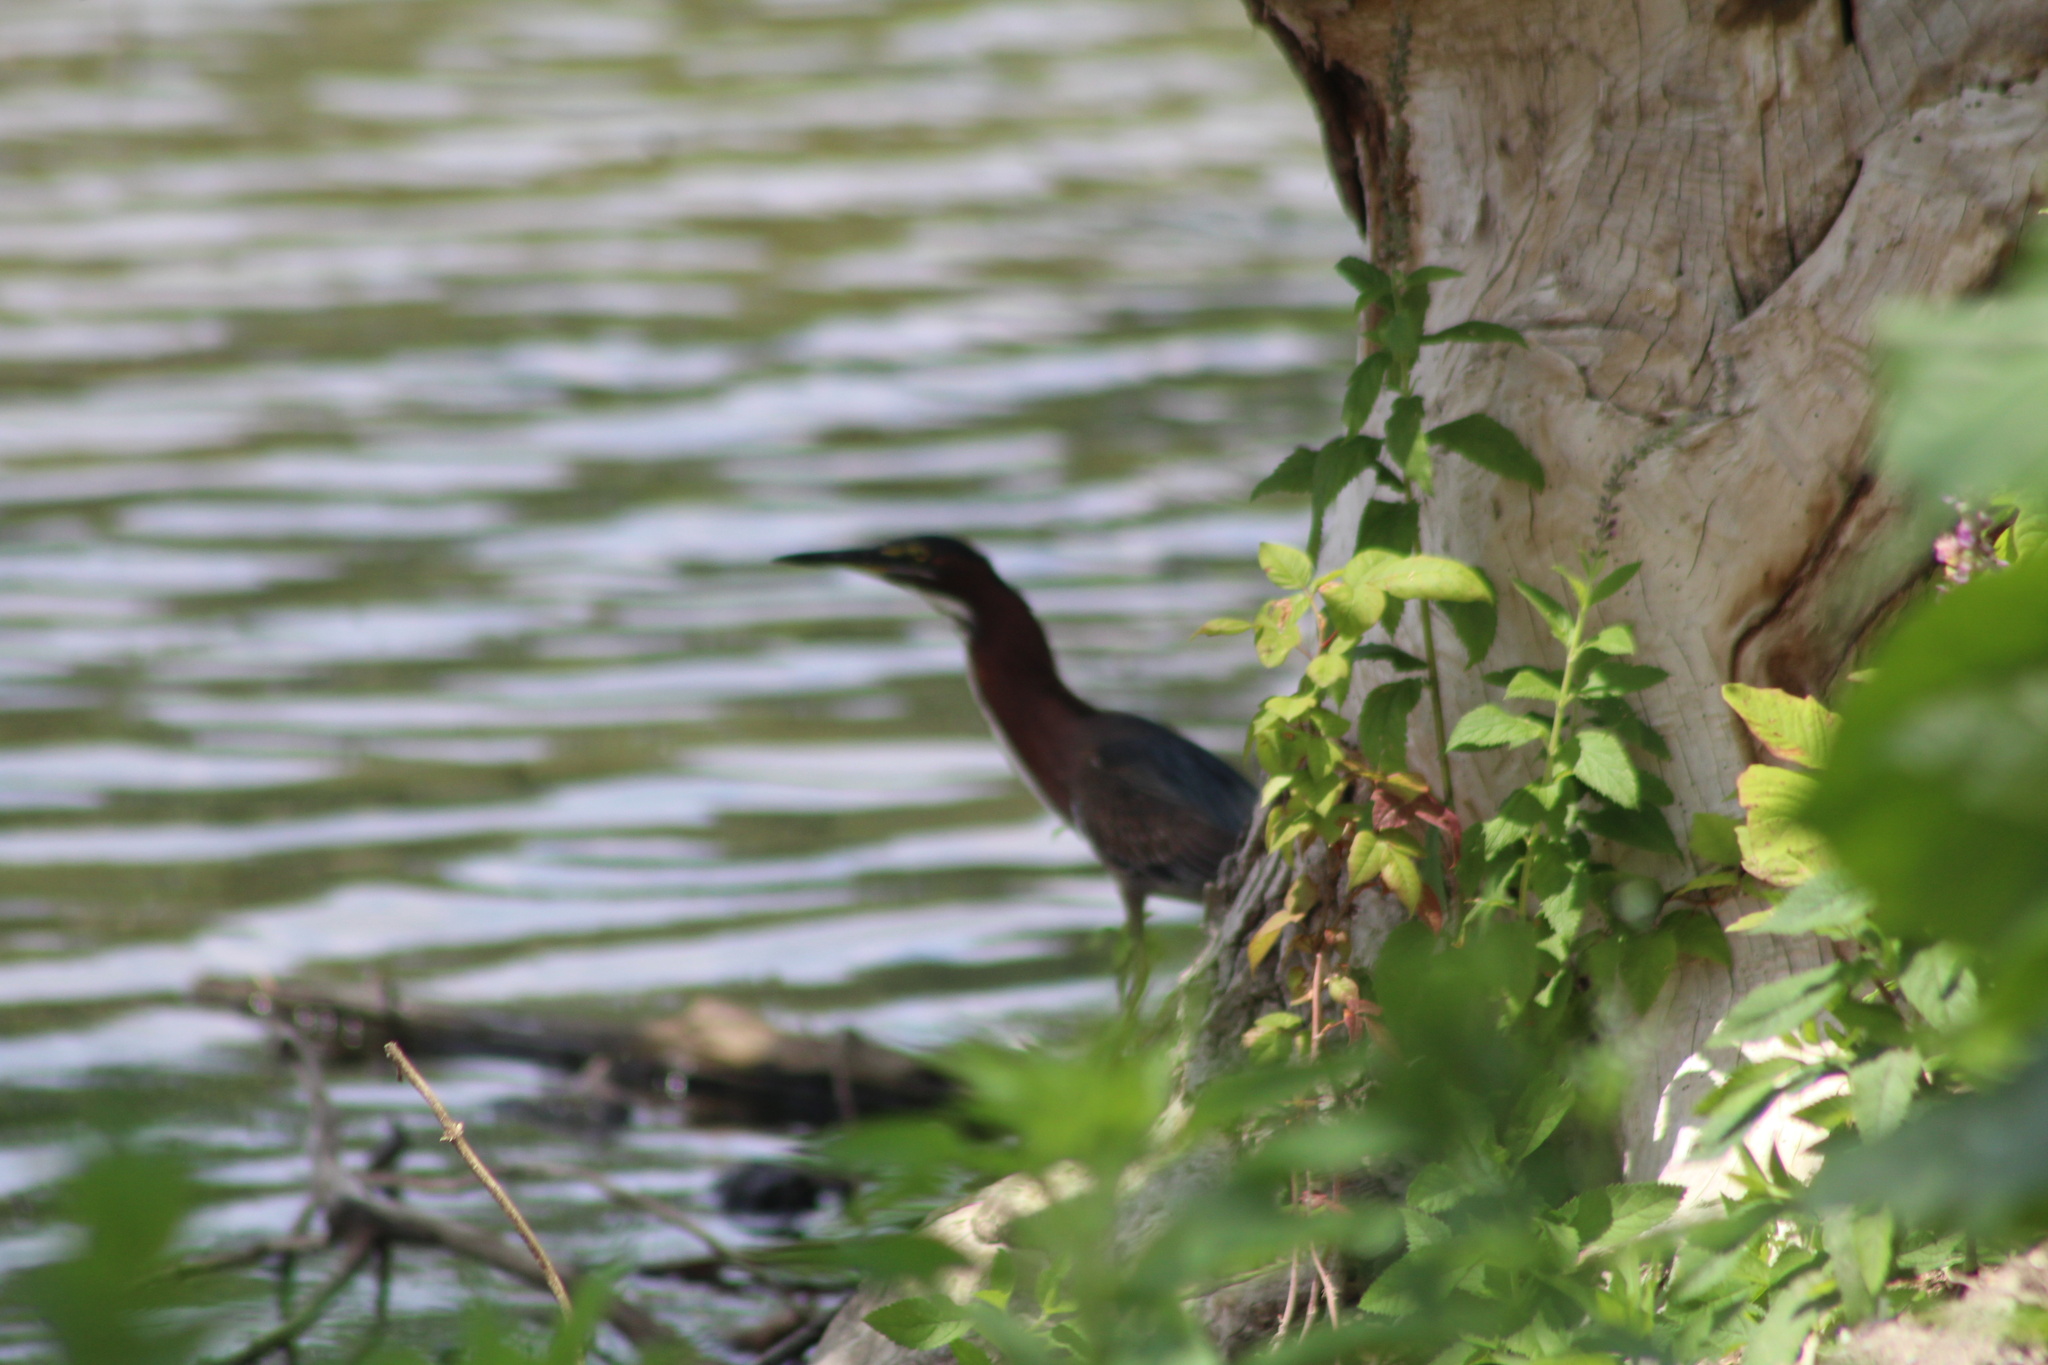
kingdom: Animalia
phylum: Chordata
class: Aves
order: Pelecaniformes
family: Ardeidae
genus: Butorides
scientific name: Butorides virescens
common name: Green heron
